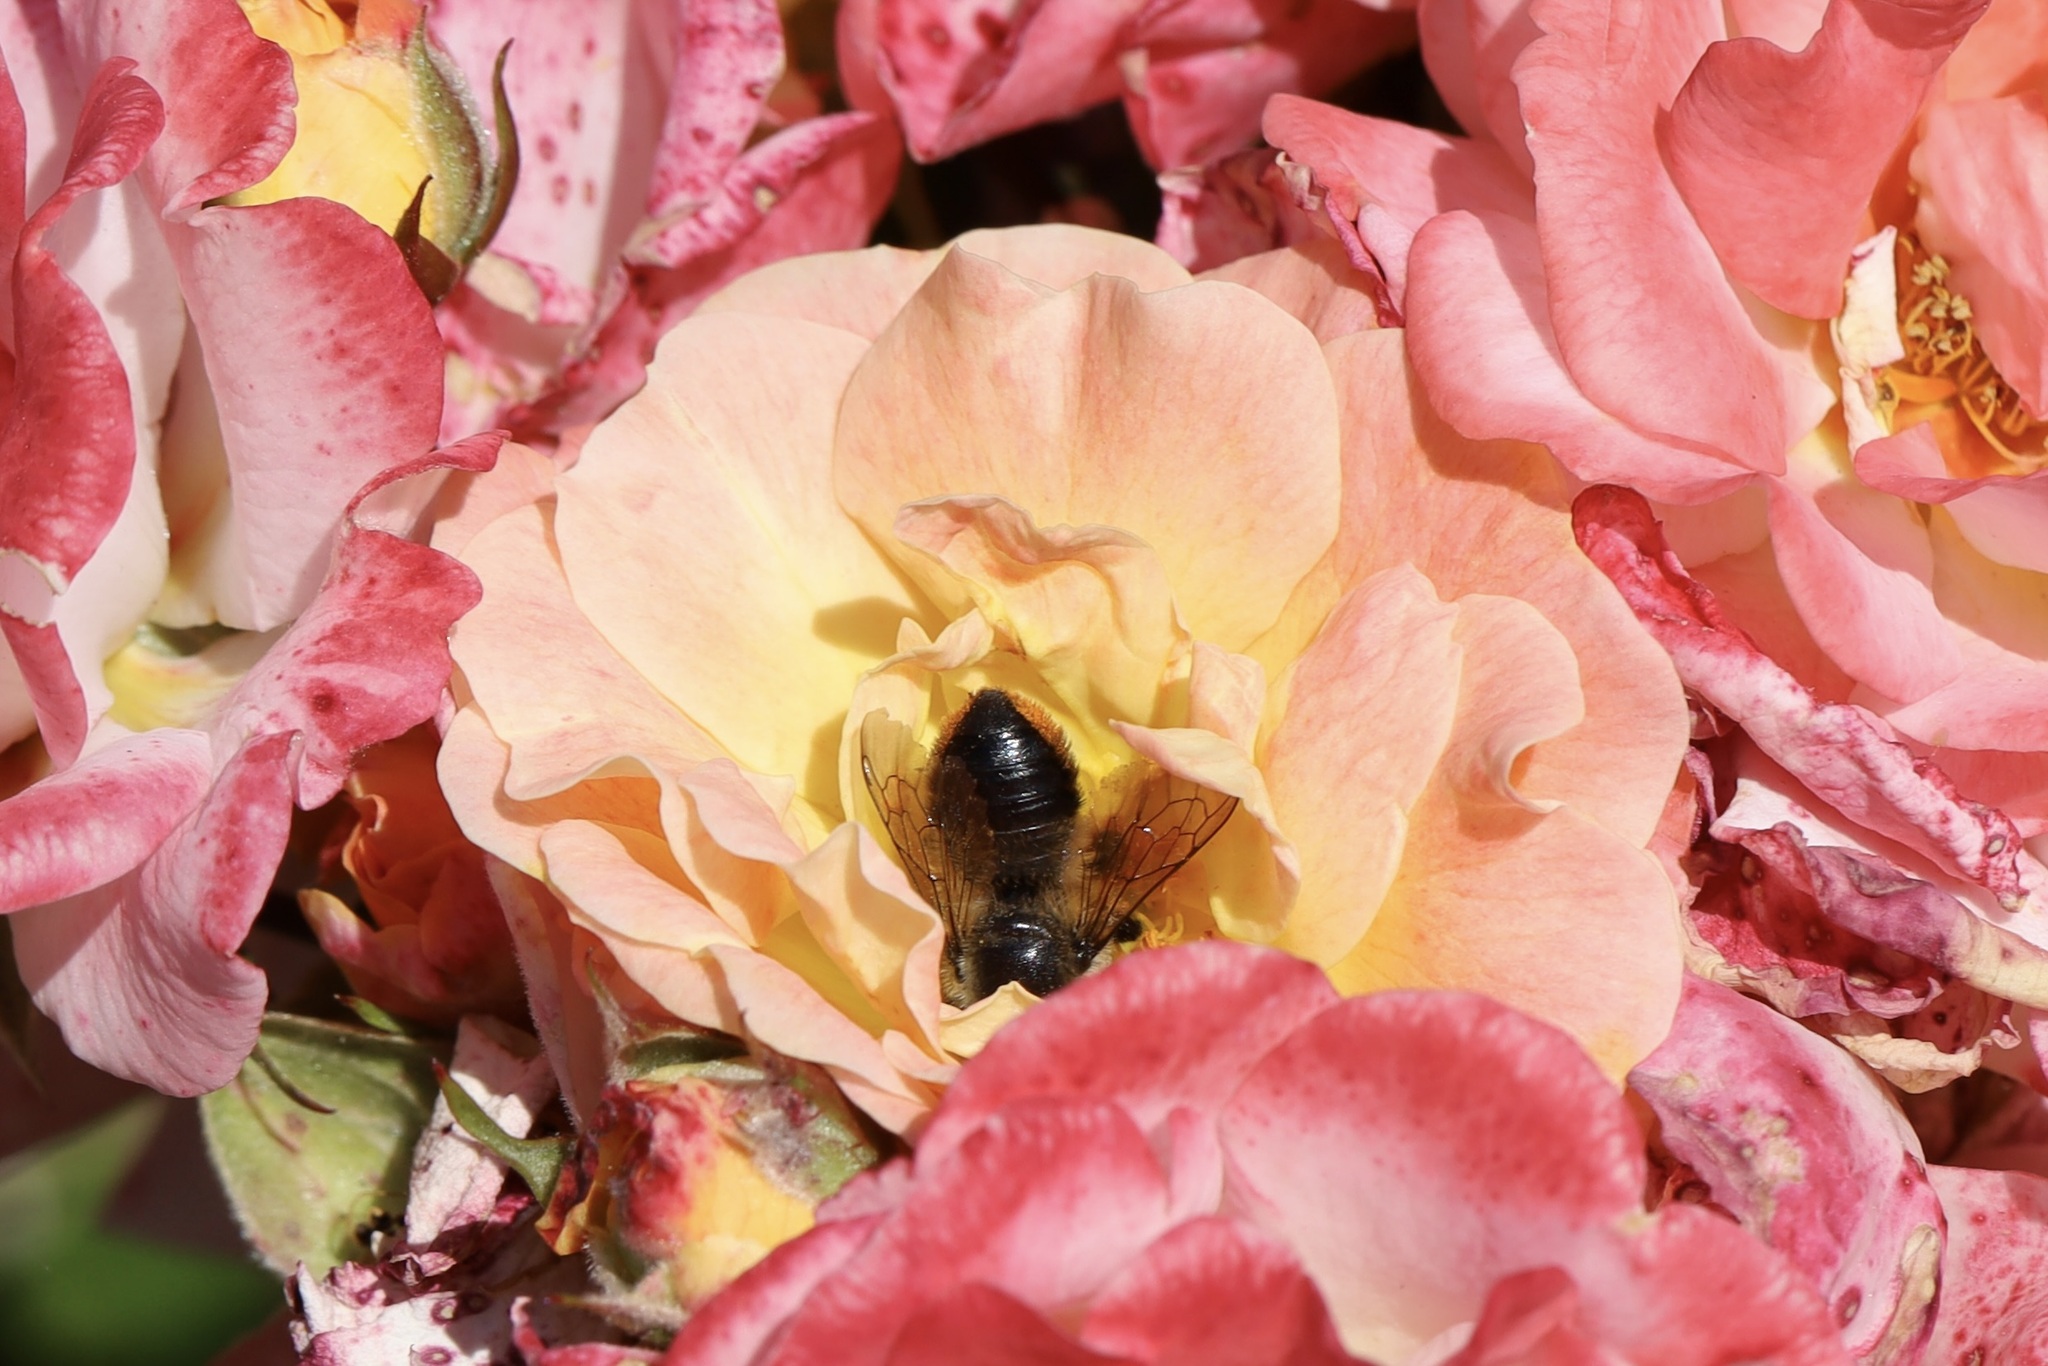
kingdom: Animalia
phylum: Arthropoda
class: Insecta
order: Hymenoptera
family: Megachilidae
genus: Megachile
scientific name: Megachile melanophaea
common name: Black-and-gray leafcutter bee
